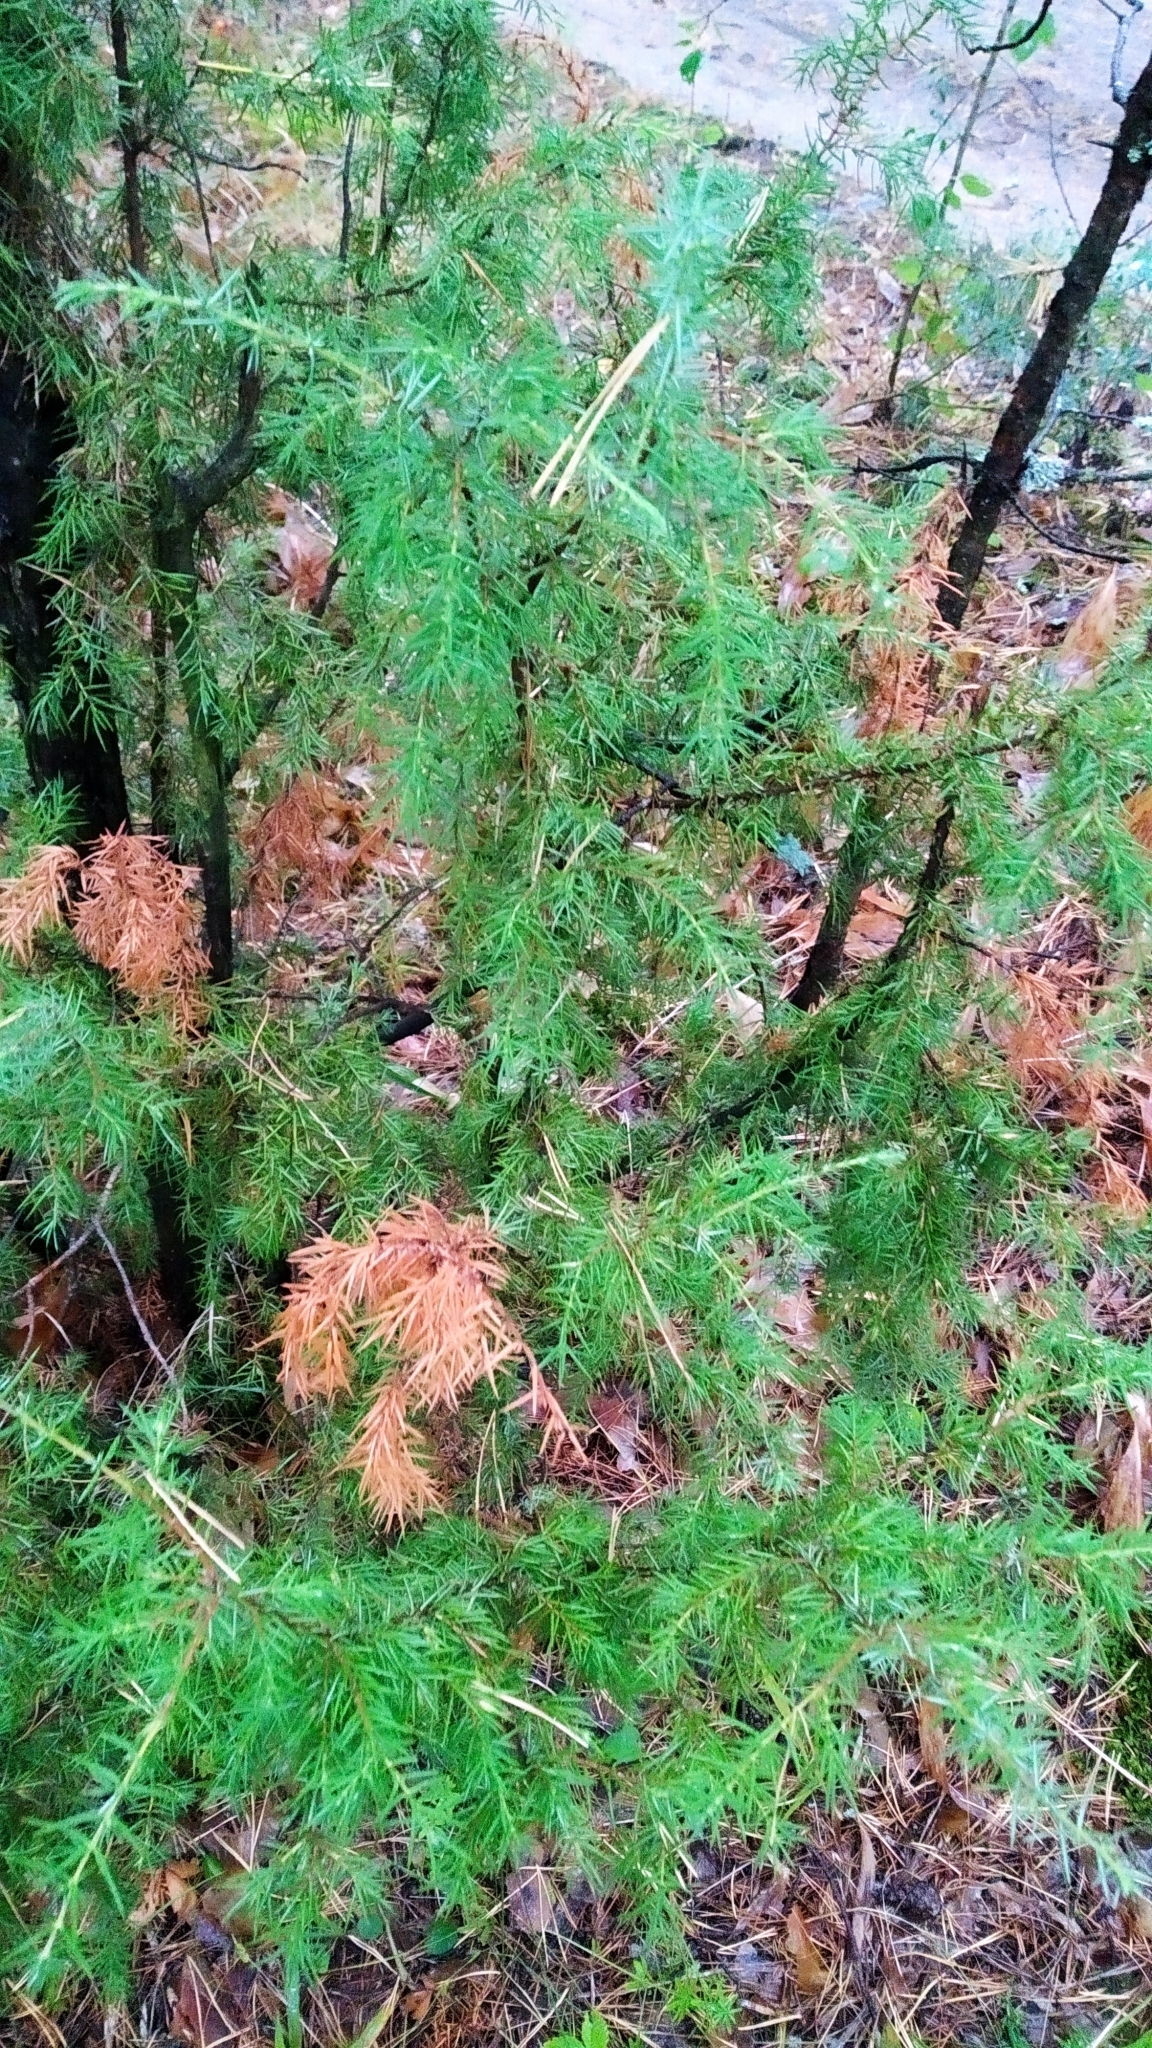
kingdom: Plantae
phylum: Tracheophyta
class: Pinopsida
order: Pinales
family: Cupressaceae
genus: Juniperus
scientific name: Juniperus communis
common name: Common juniper
